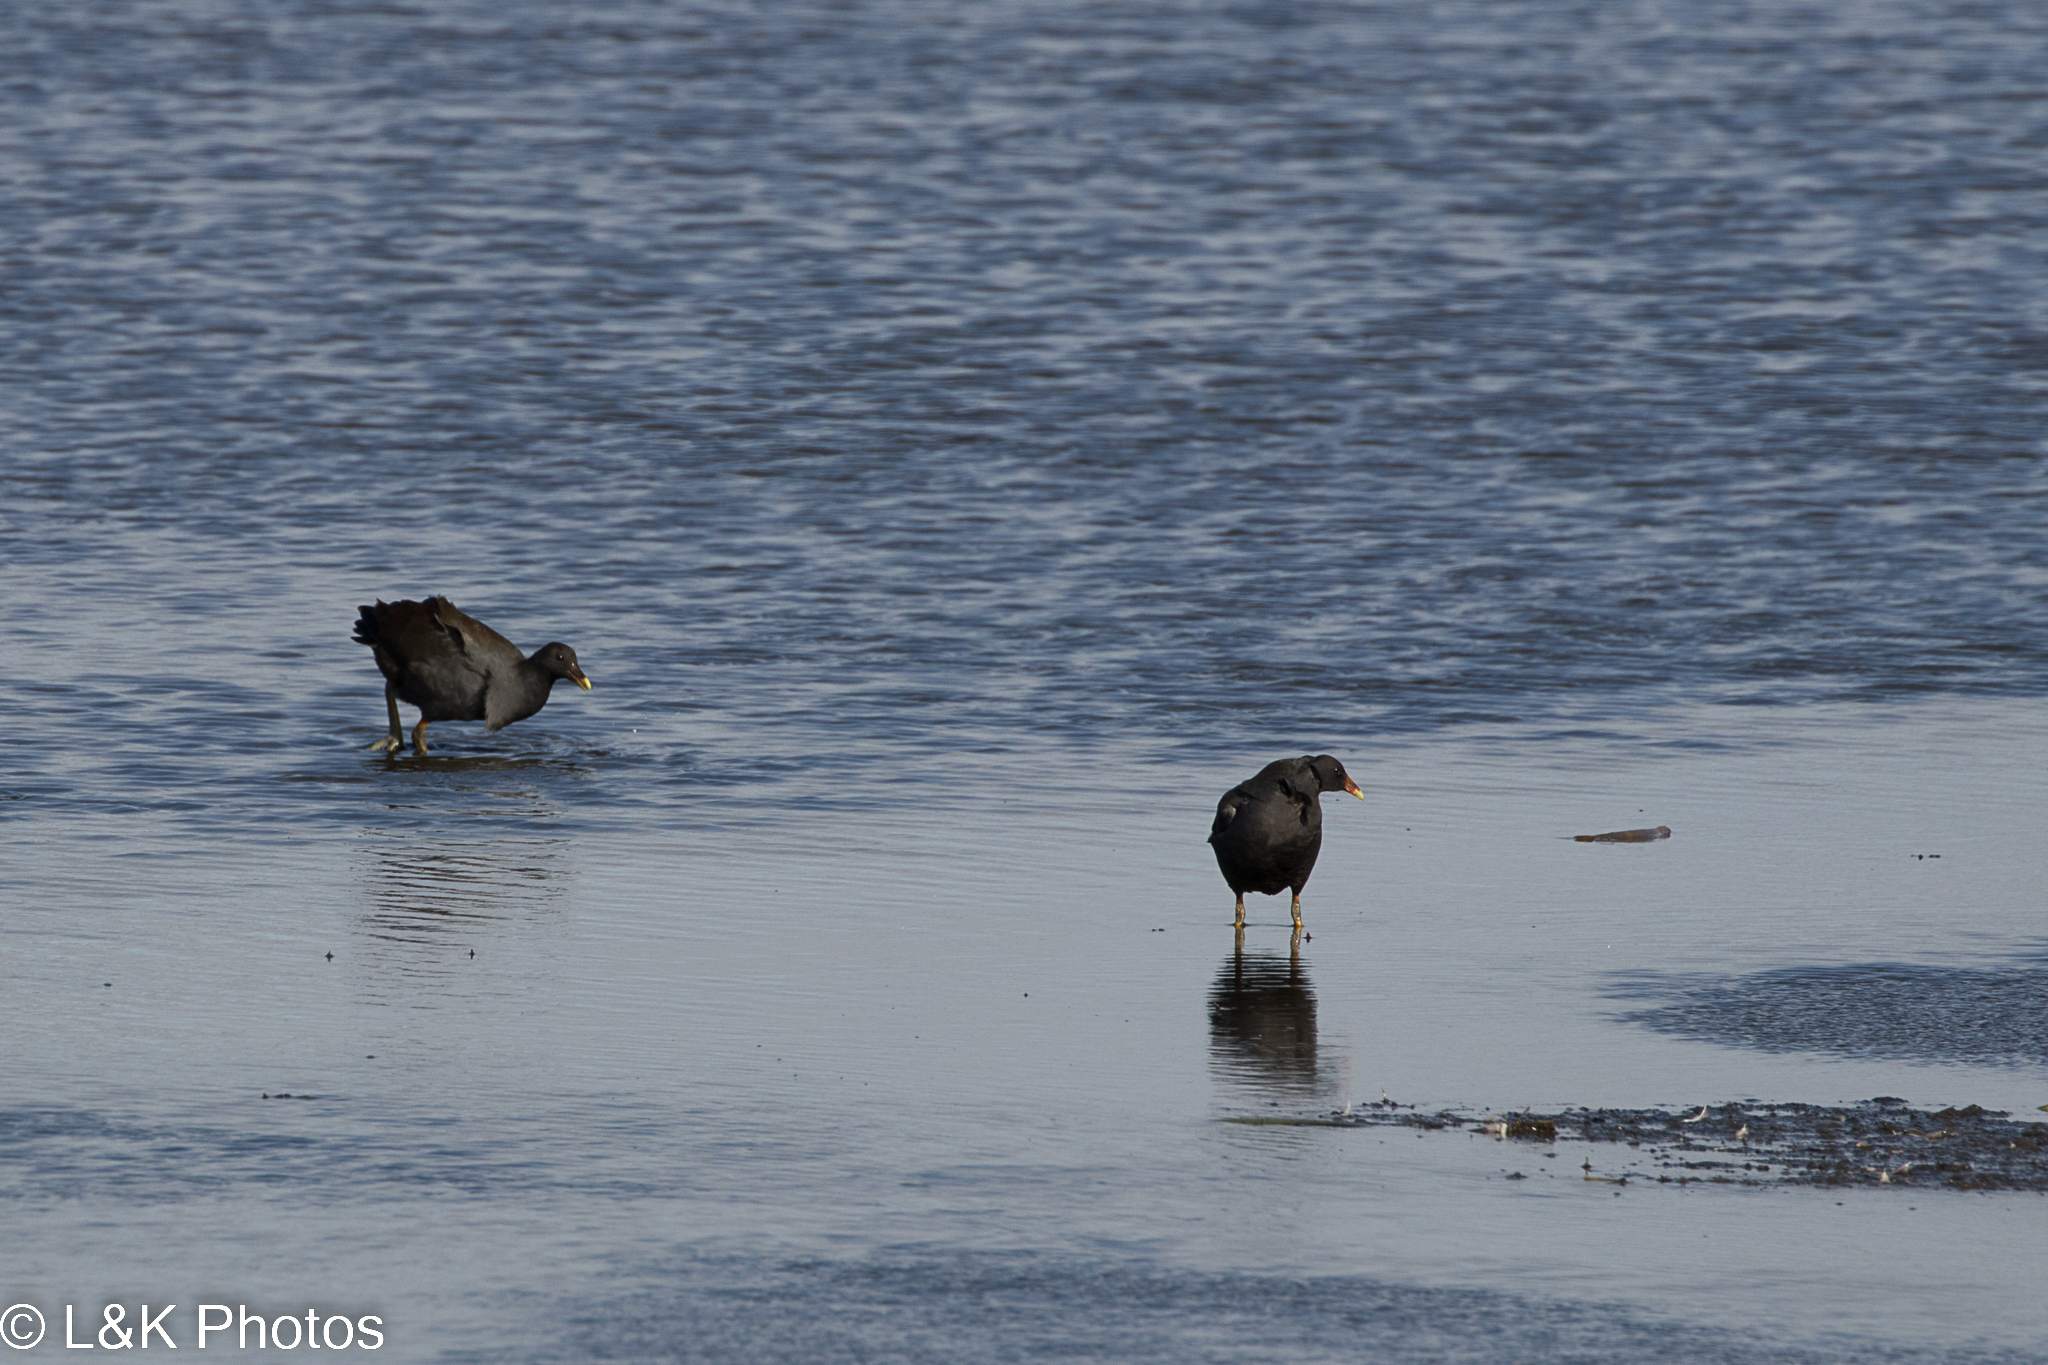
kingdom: Animalia
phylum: Chordata
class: Aves
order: Gruiformes
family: Rallidae
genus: Gallinula
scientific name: Gallinula tenebrosa
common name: Dusky moorhen
